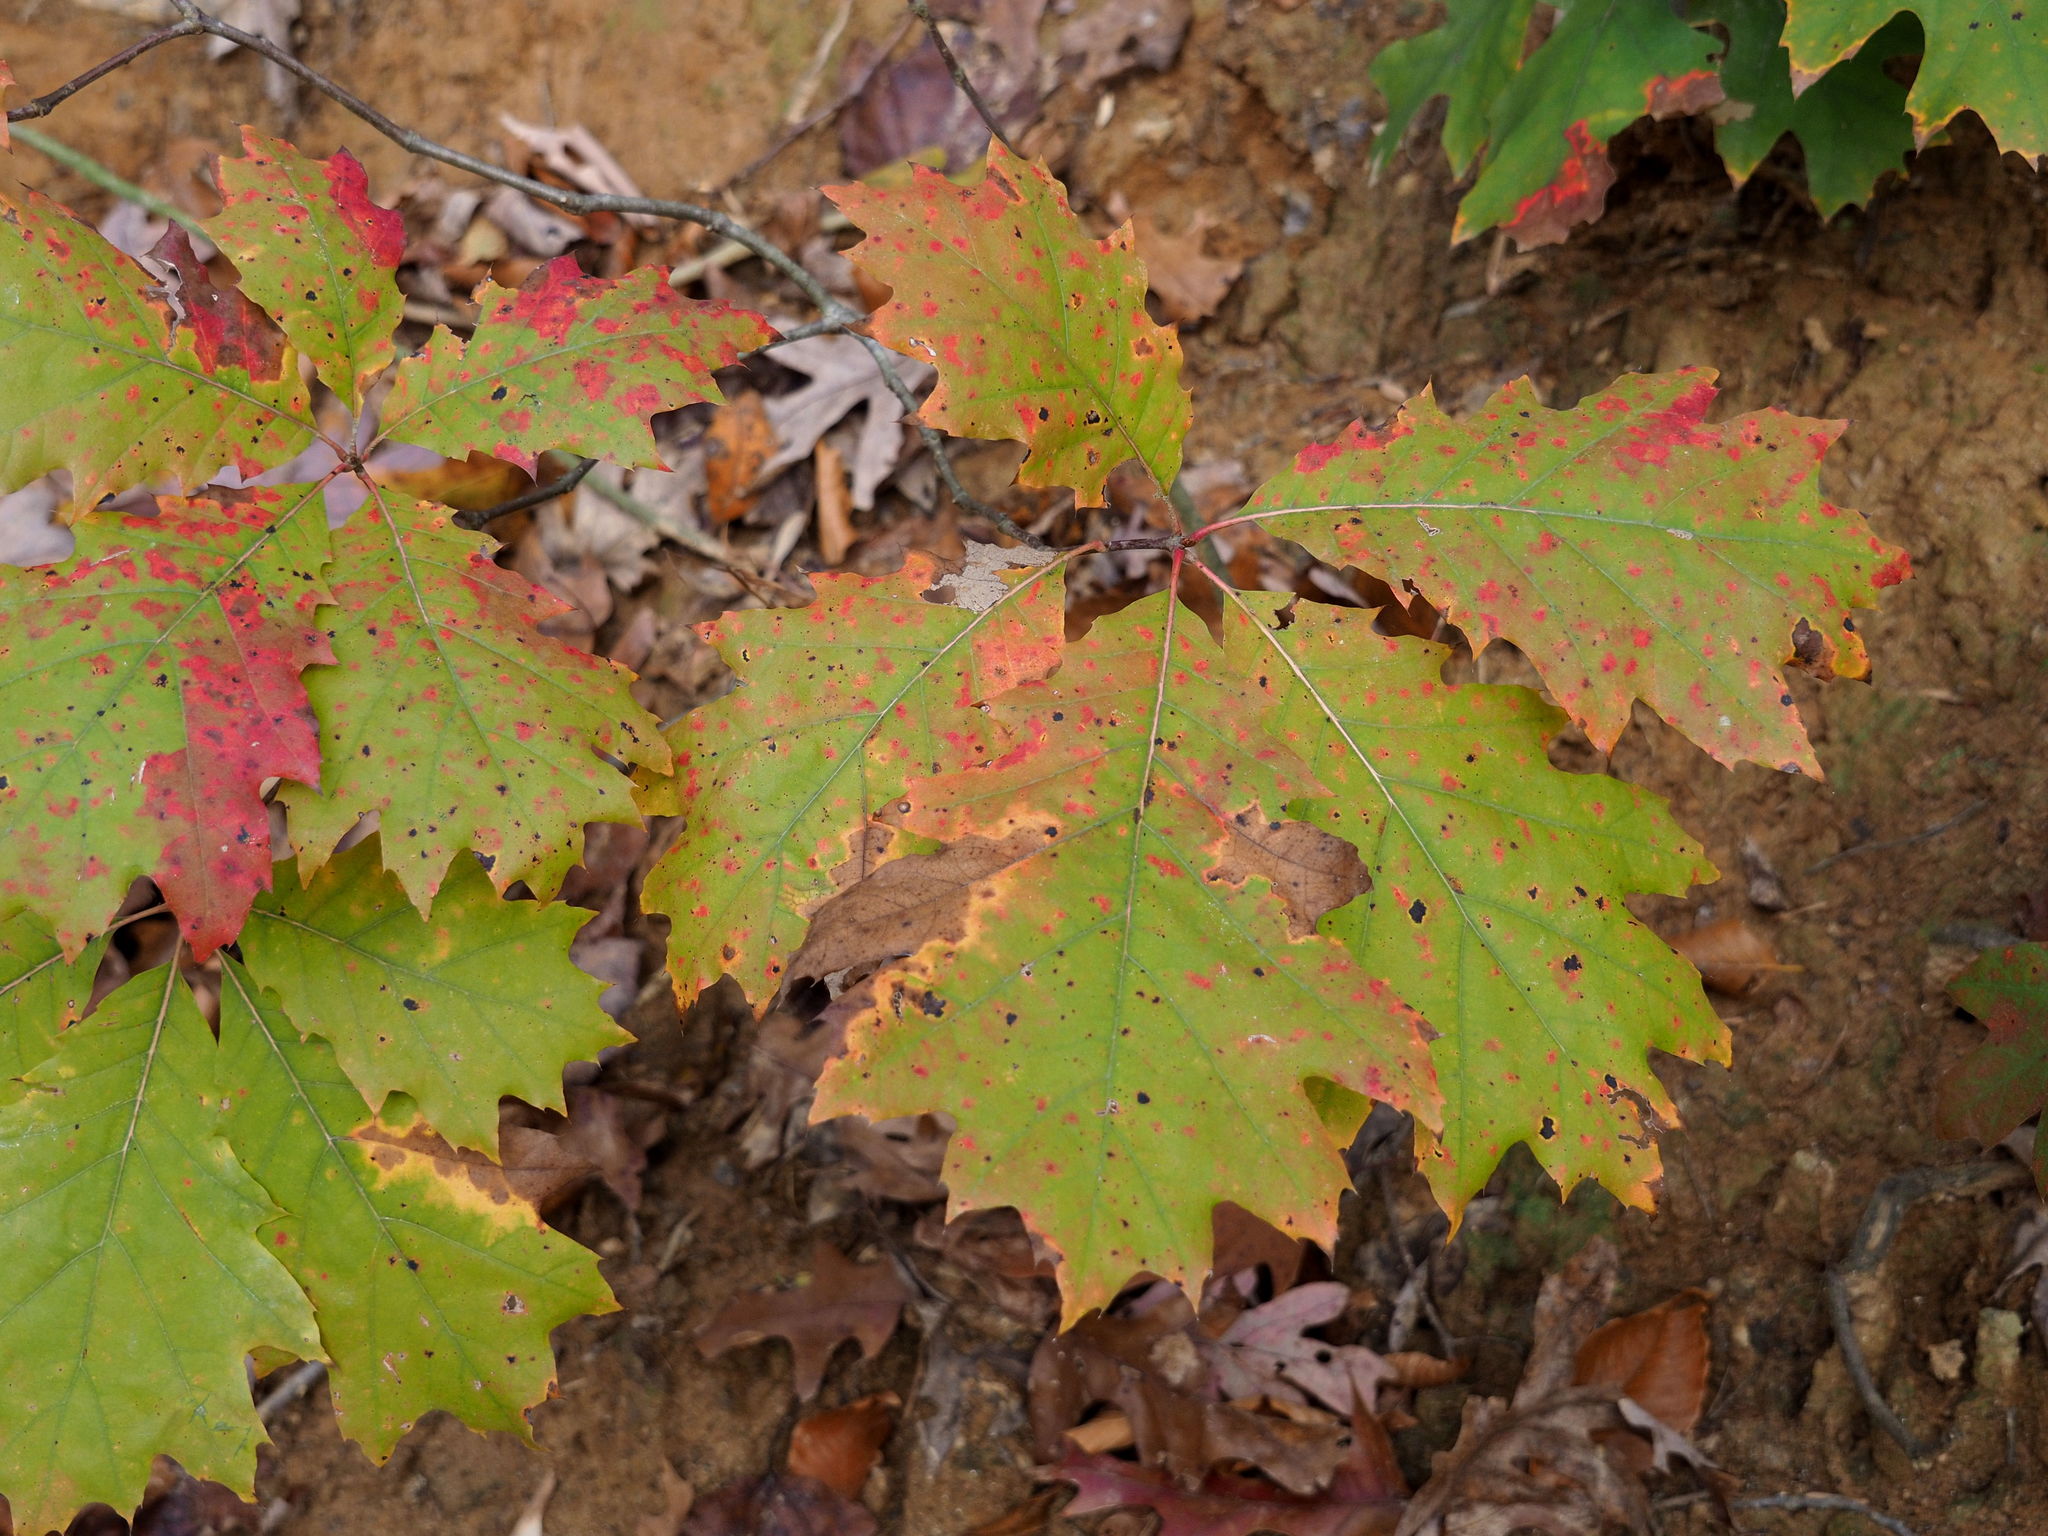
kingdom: Plantae
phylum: Tracheophyta
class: Magnoliopsida
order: Fagales
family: Fagaceae
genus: Quercus
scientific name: Quercus rubra
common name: Red oak
